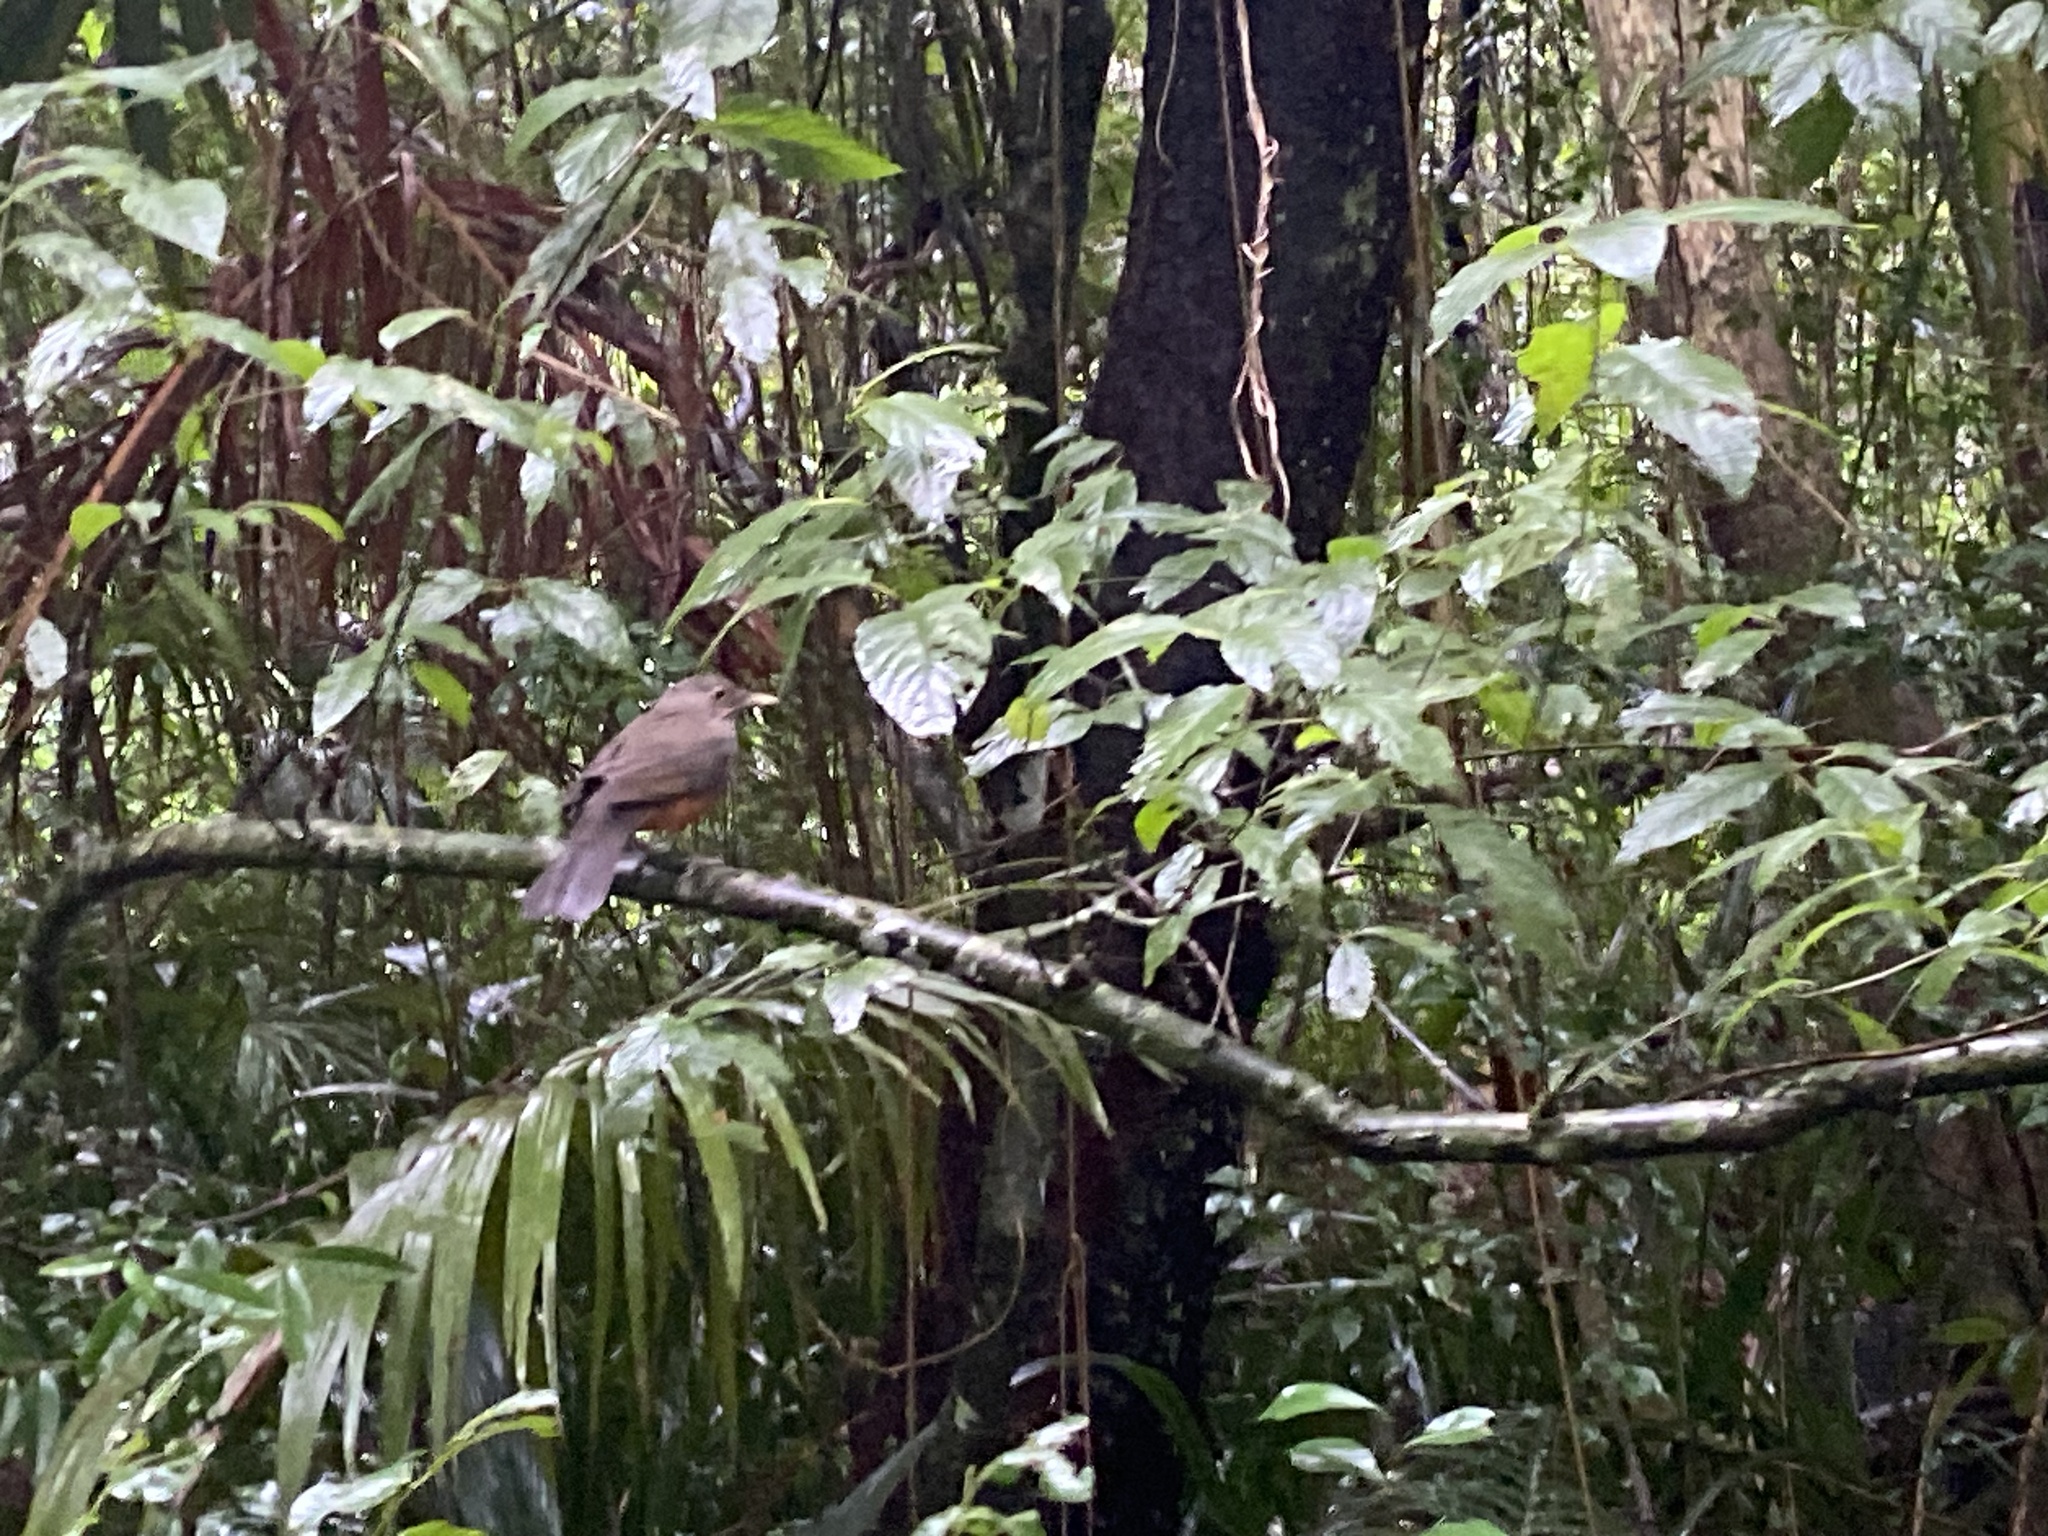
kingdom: Animalia
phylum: Chordata
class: Aves
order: Passeriformes
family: Turdidae
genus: Turdus
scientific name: Turdus rufiventris
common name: Rufous-bellied thrush
